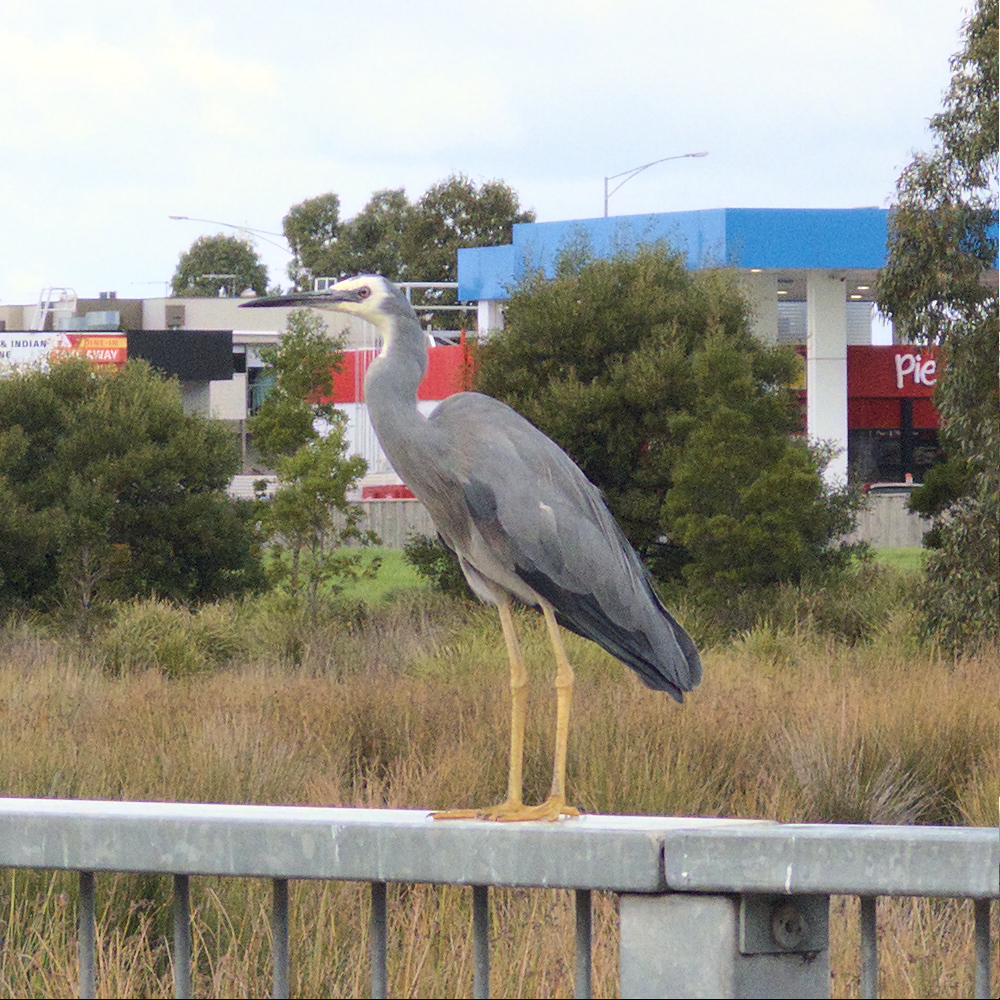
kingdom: Animalia
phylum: Chordata
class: Aves
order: Pelecaniformes
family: Ardeidae
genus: Egretta
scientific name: Egretta novaehollandiae
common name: White-faced heron
